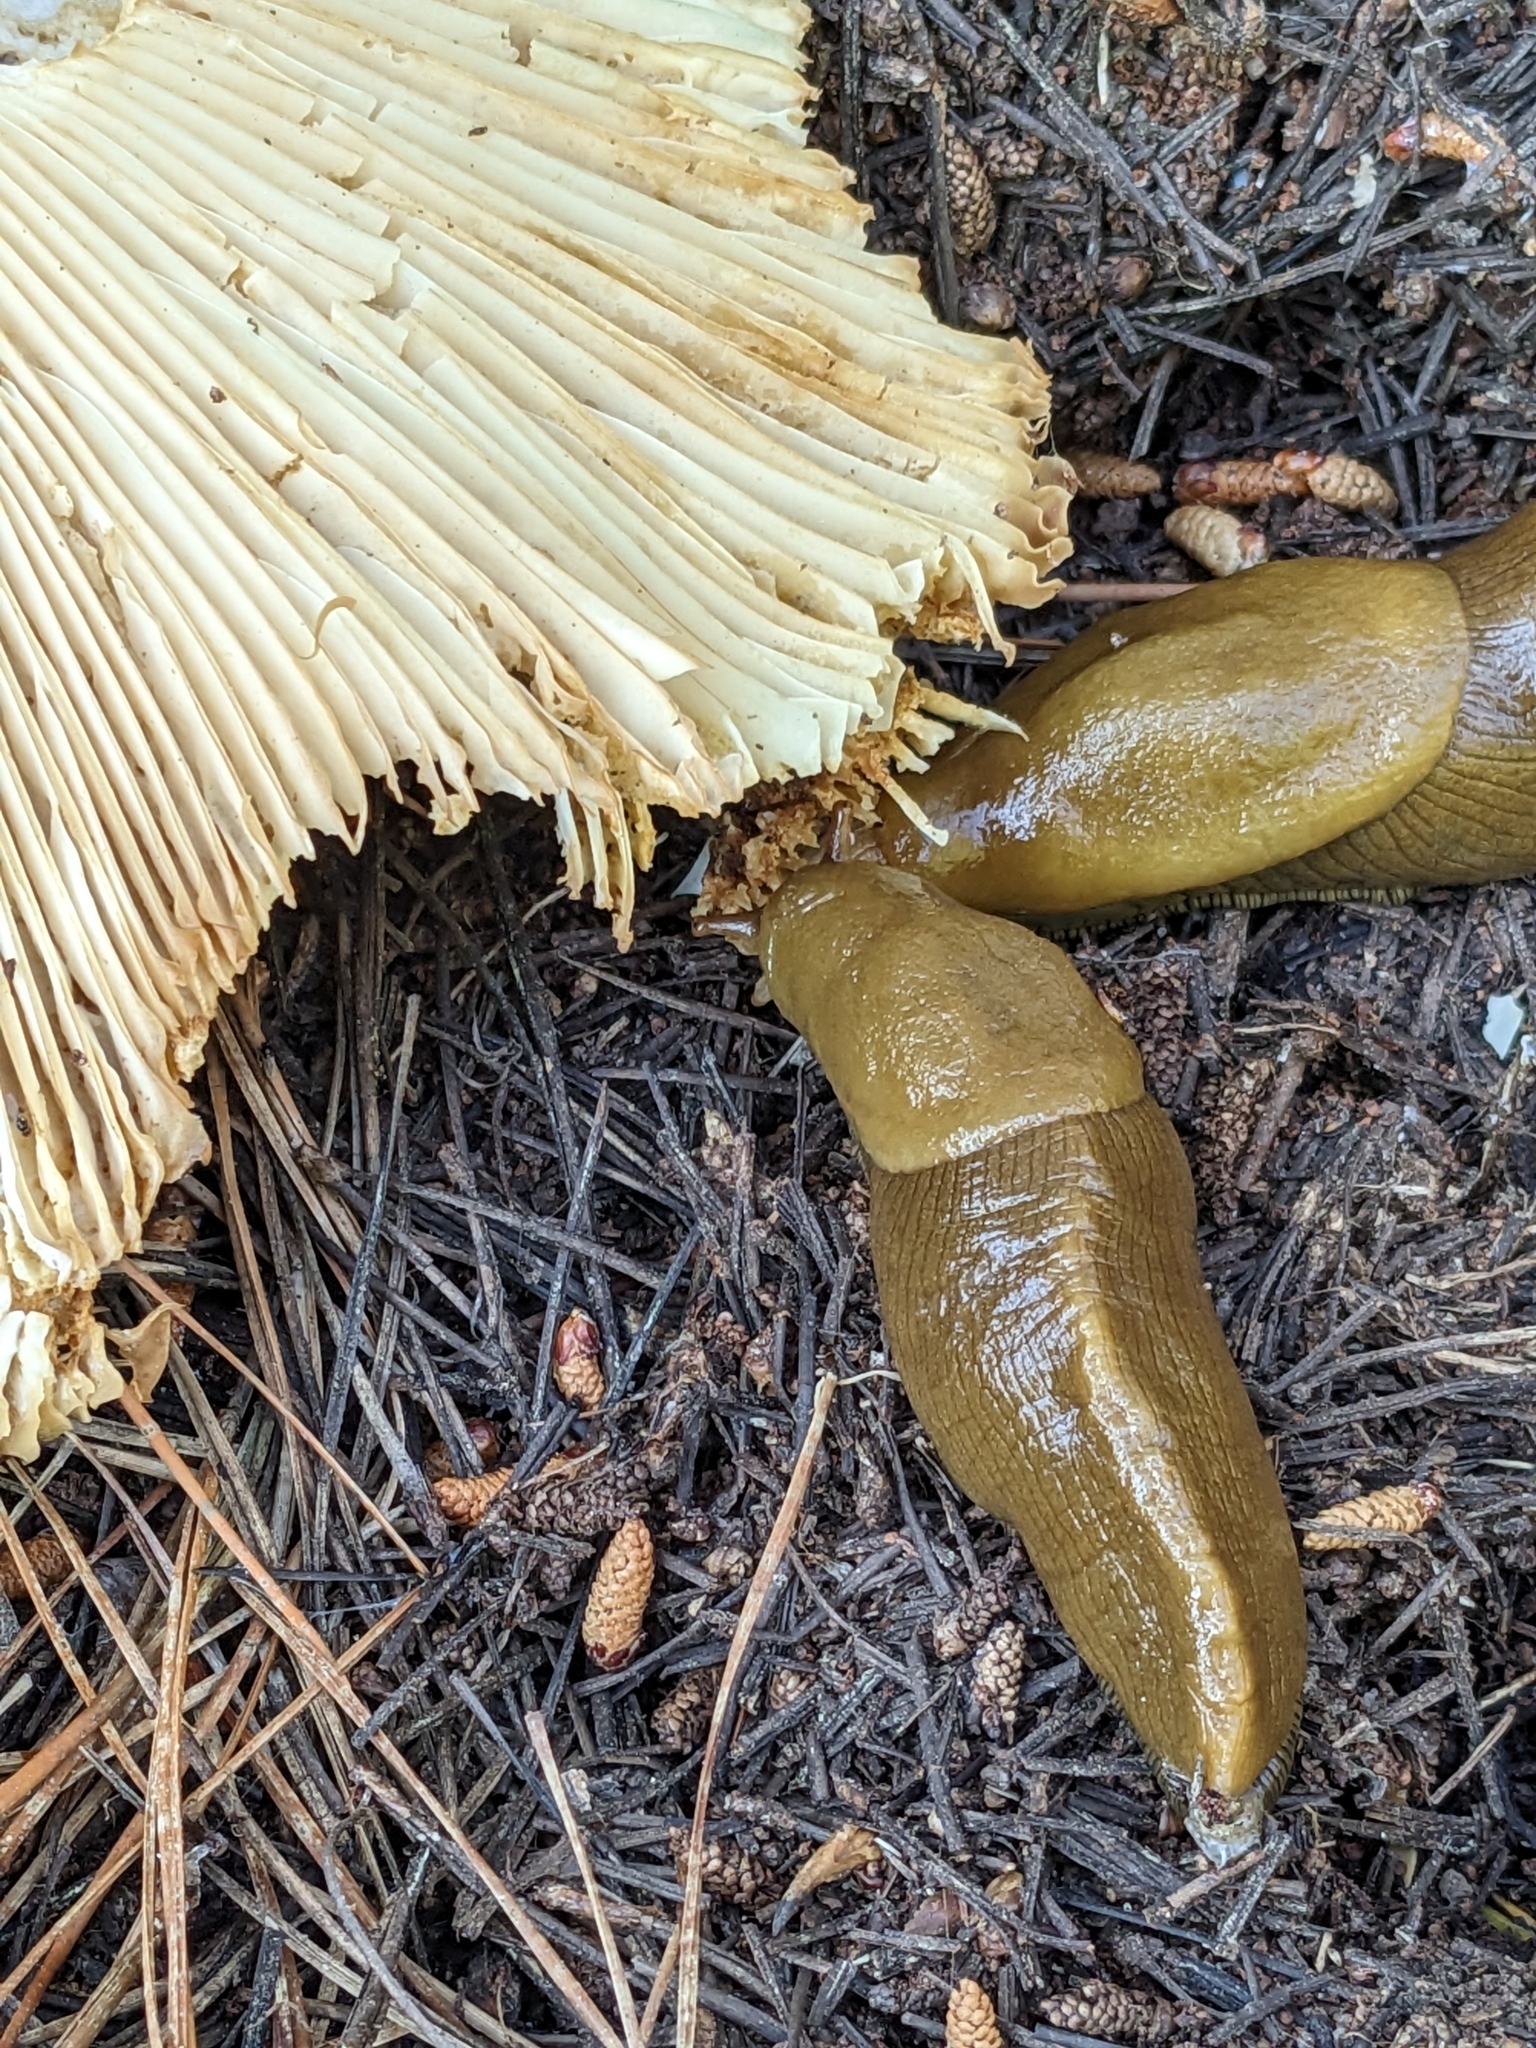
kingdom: Animalia
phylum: Mollusca
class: Gastropoda
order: Stylommatophora
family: Ariolimacidae
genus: Ariolimax
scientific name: Ariolimax buttoni
